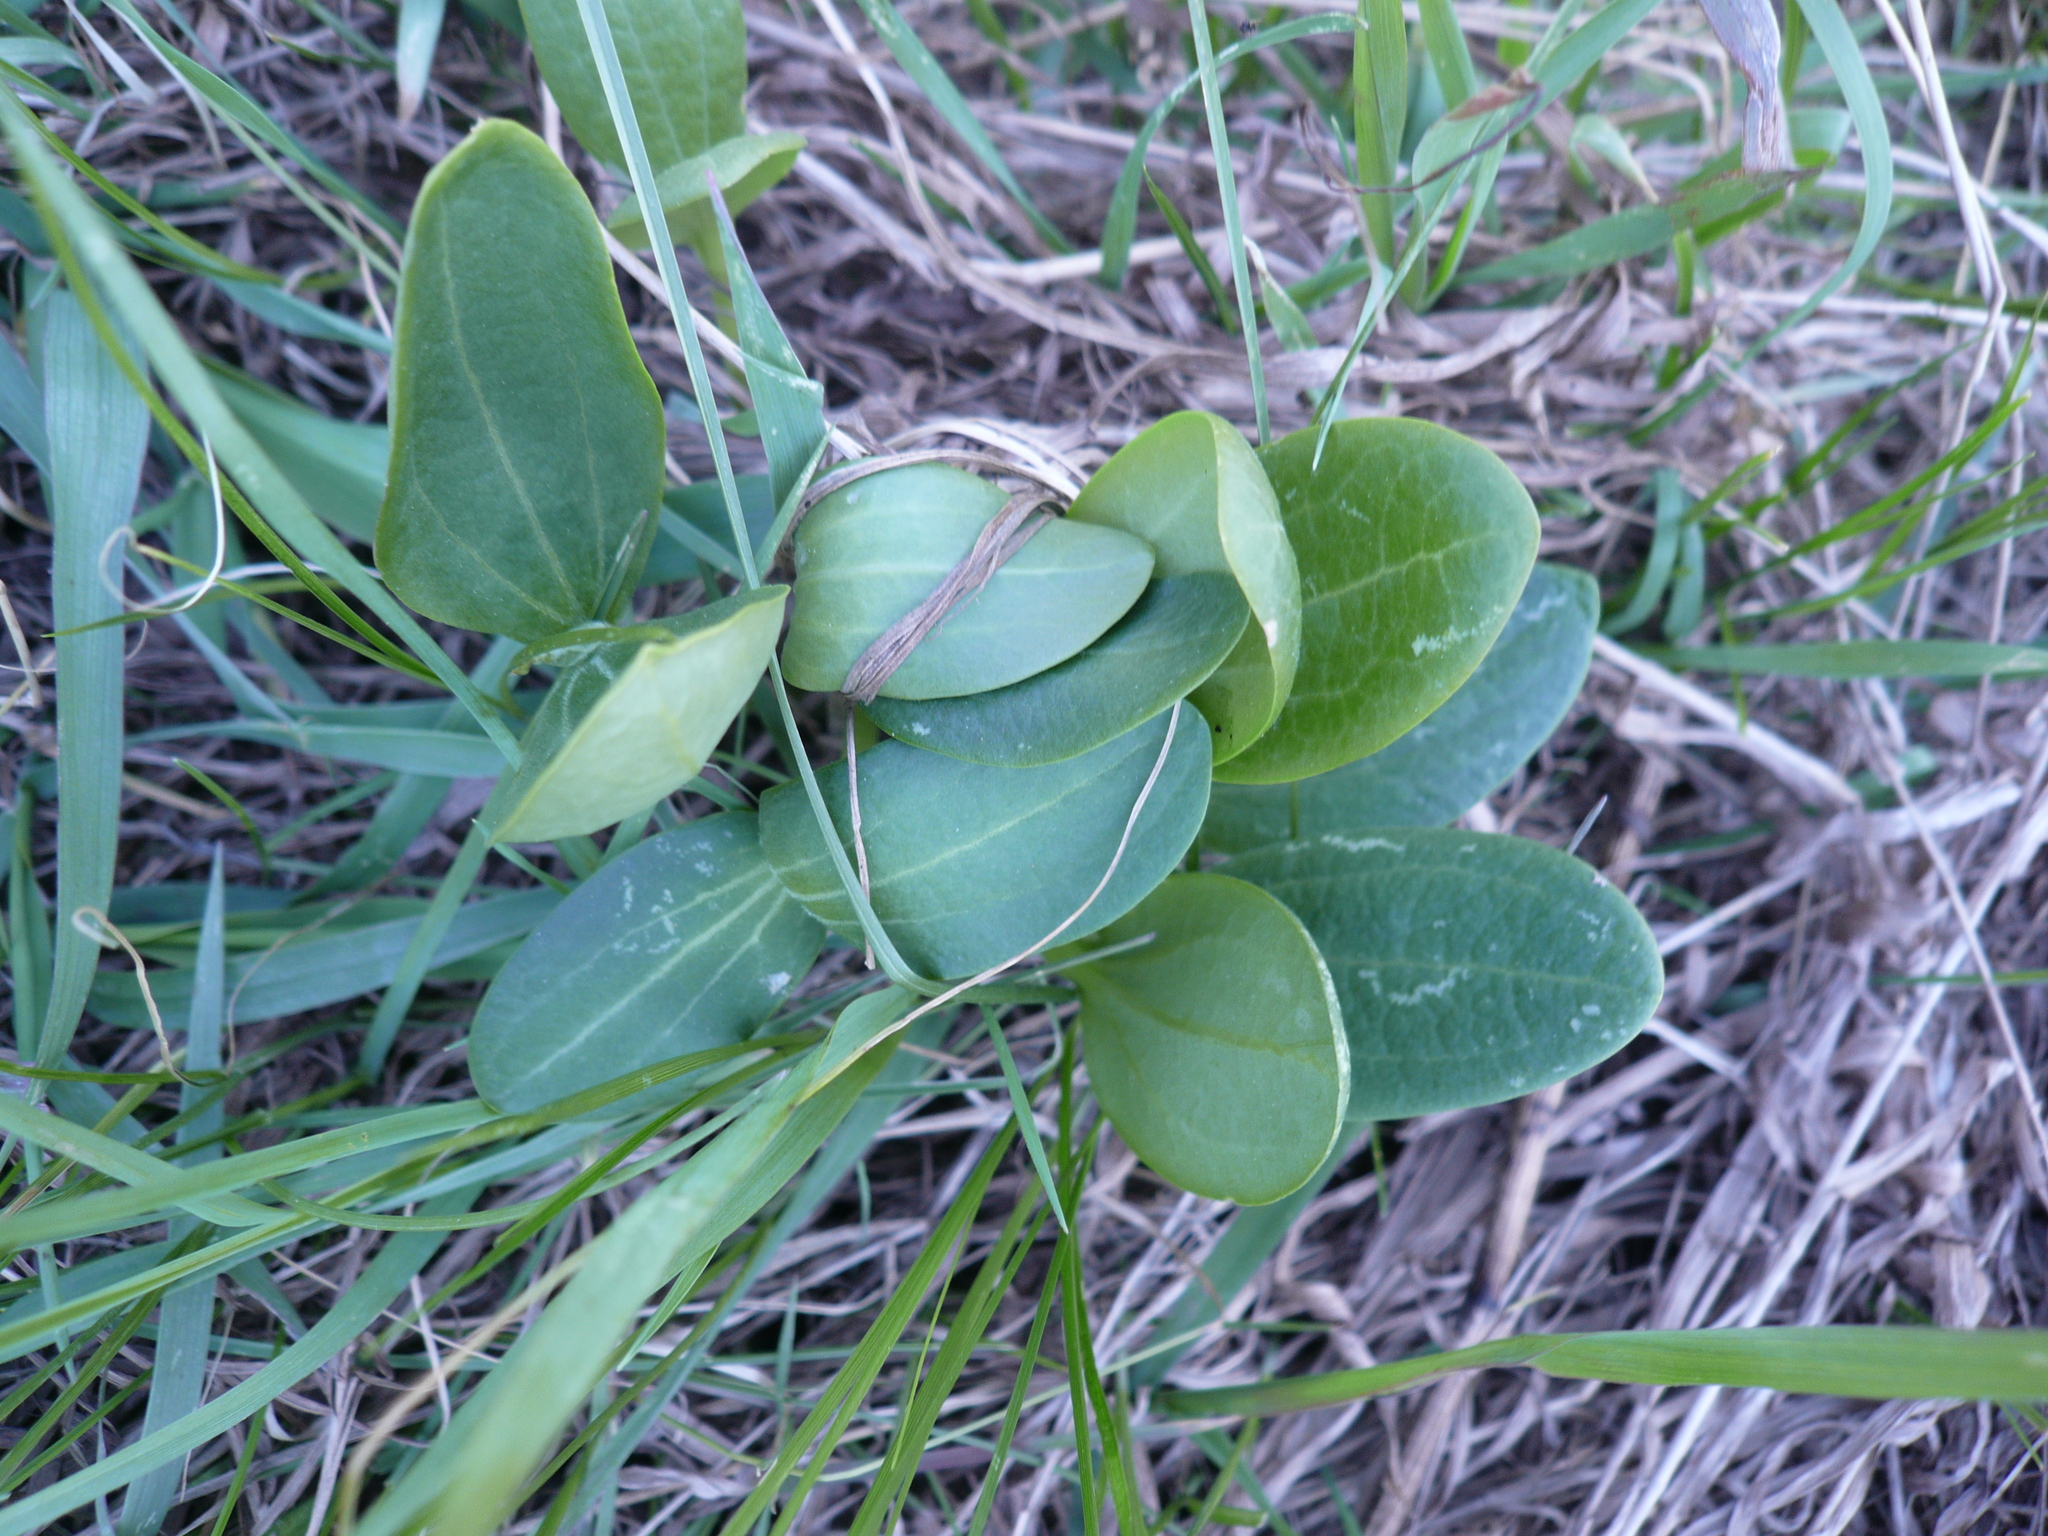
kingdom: Plantae
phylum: Tracheophyta
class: Magnoliopsida
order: Cucurbitales
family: Cucurbitaceae
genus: Echinocystis
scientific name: Echinocystis lobata
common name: Wild cucumber
